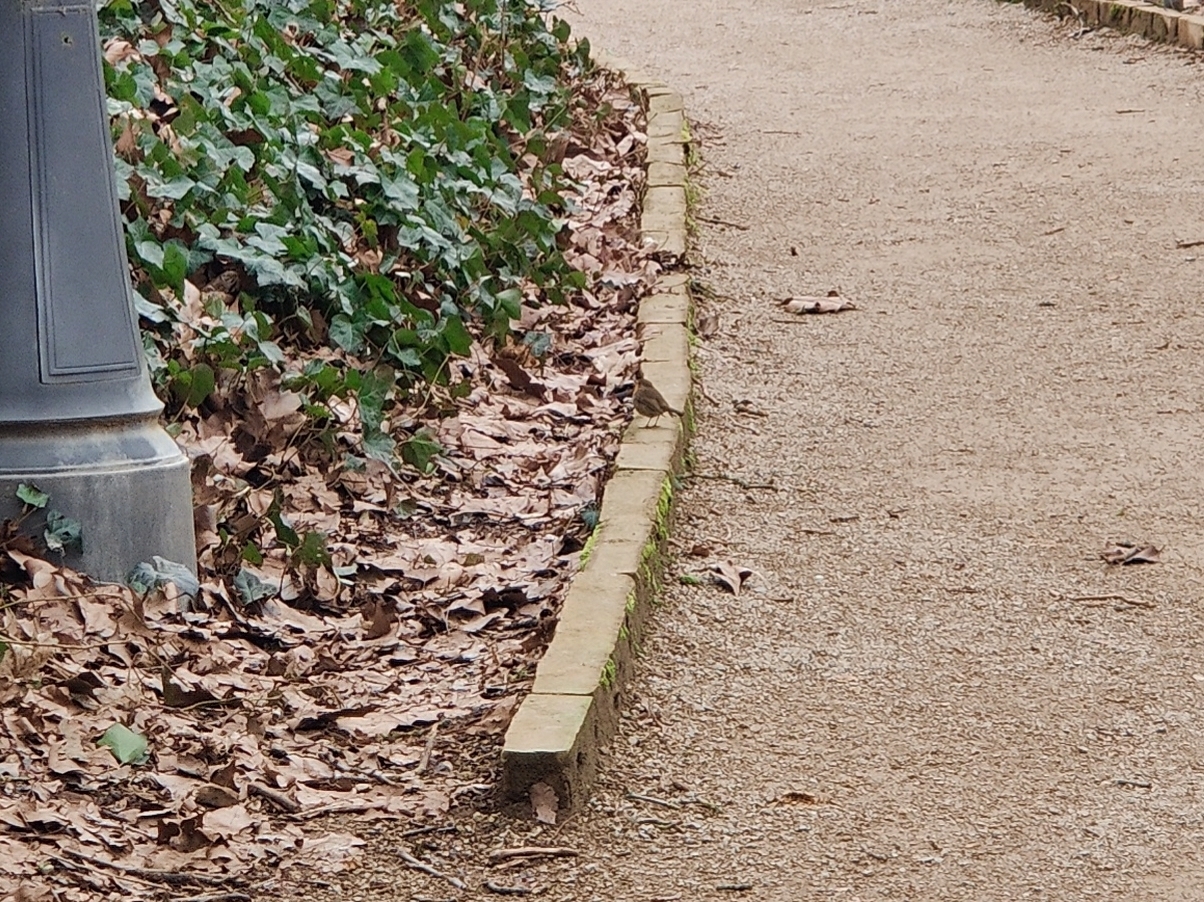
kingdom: Animalia
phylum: Chordata
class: Aves
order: Passeriformes
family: Muscicapidae
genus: Erithacus
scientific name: Erithacus rubecula
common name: European robin
